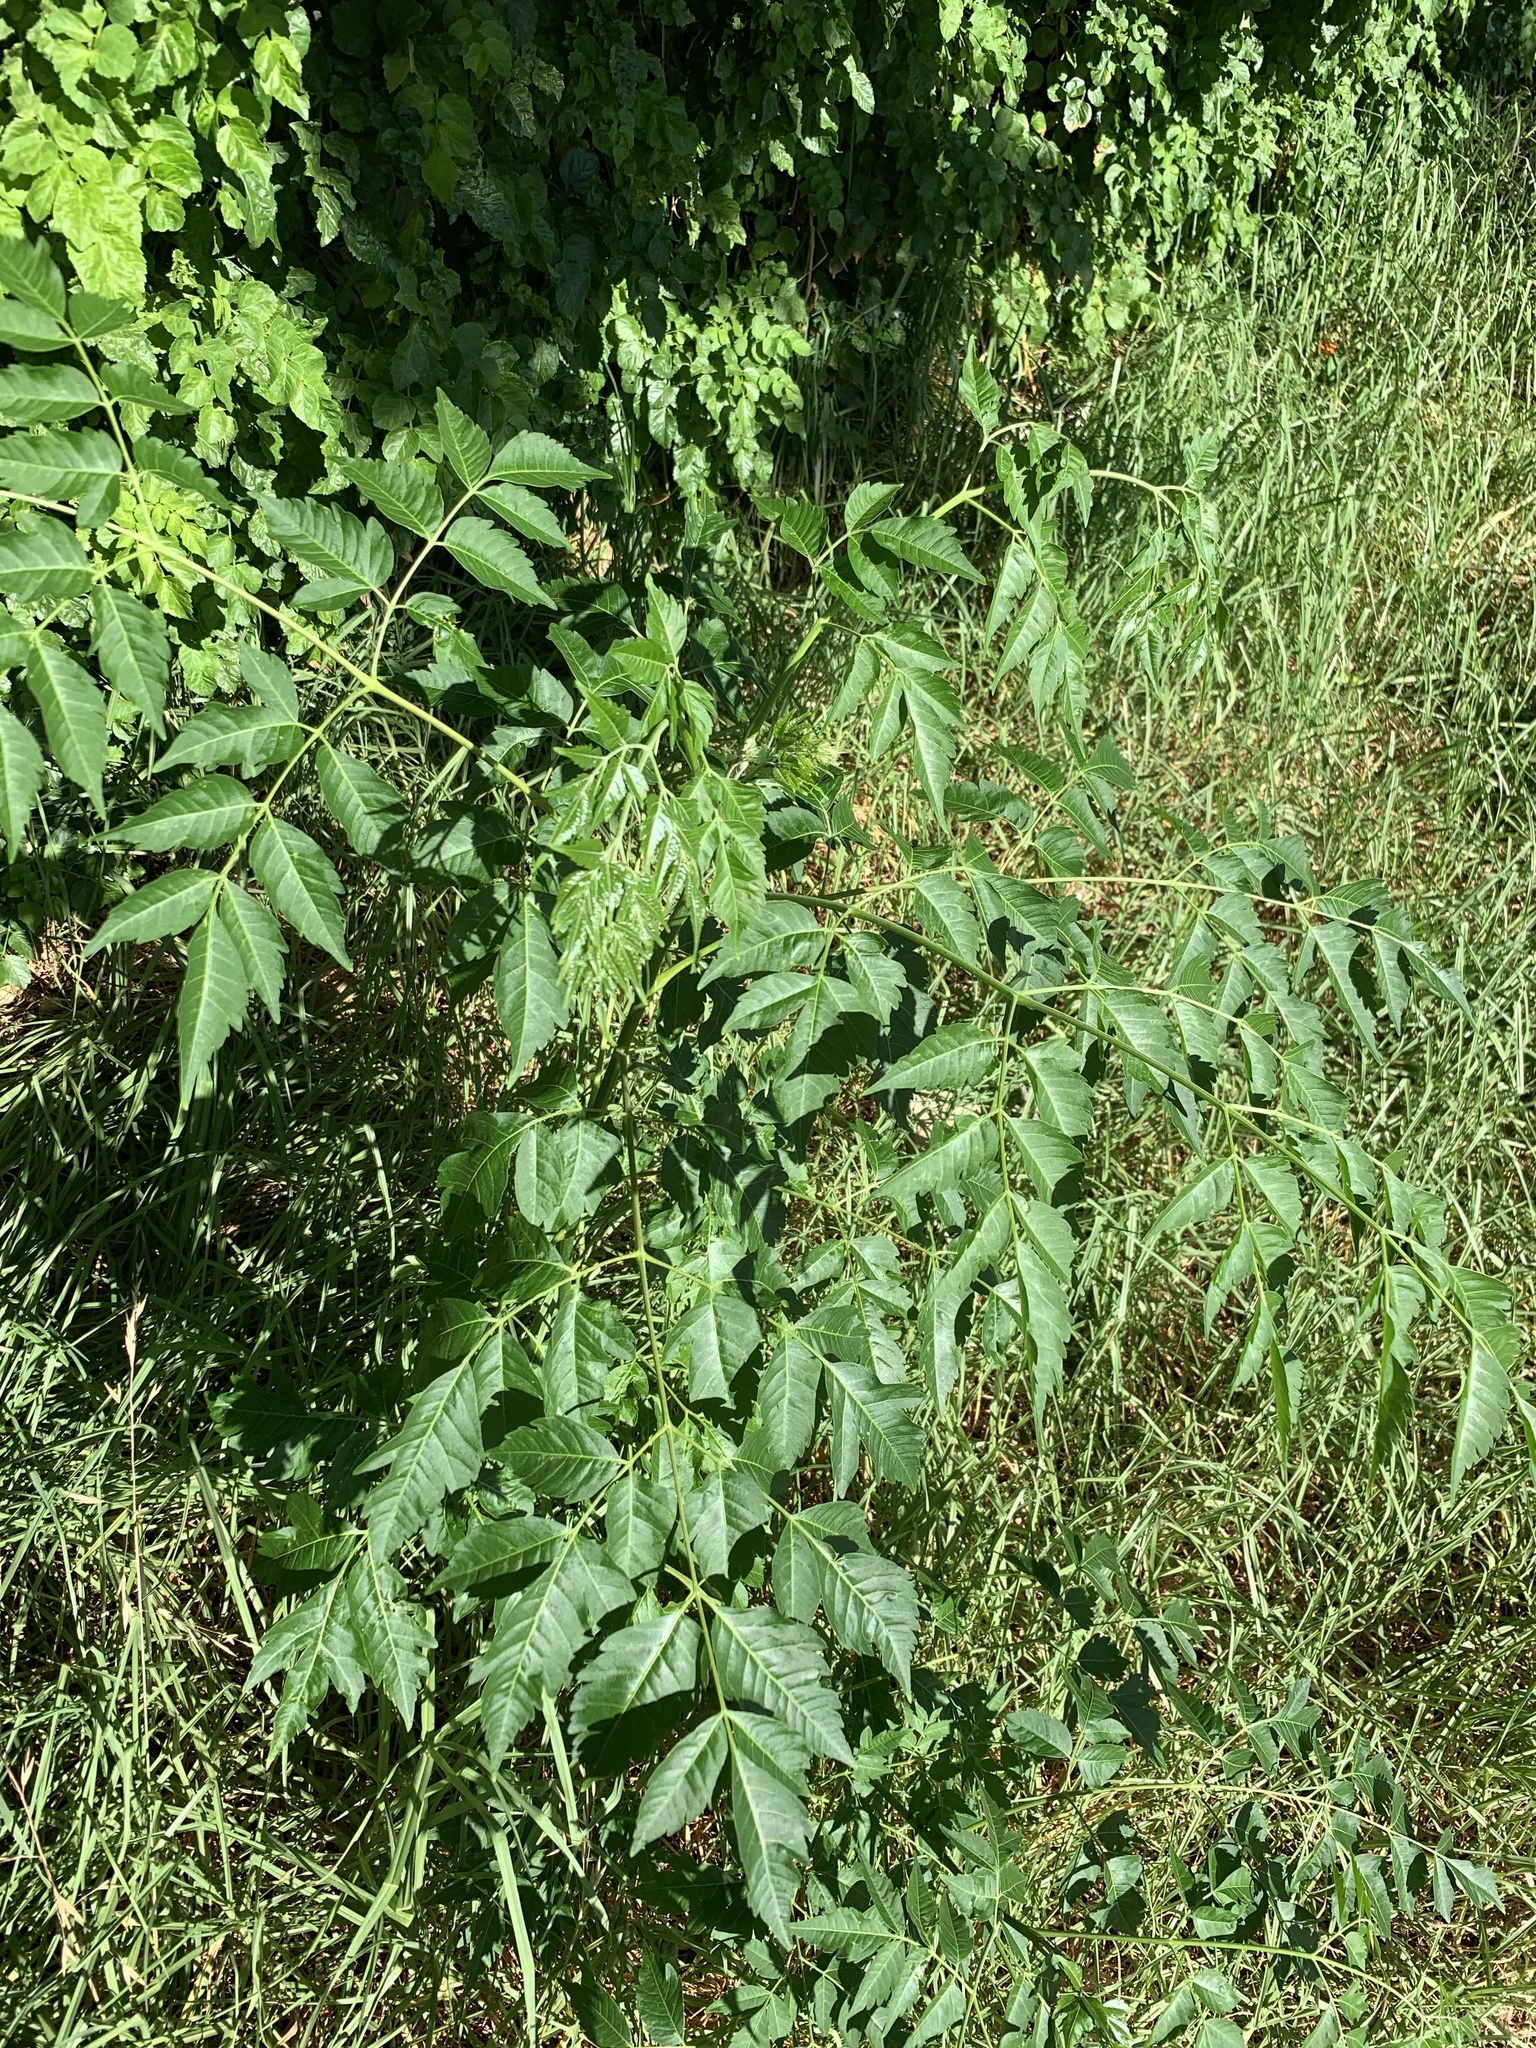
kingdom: Plantae
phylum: Tracheophyta
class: Magnoliopsida
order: Sapindales
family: Meliaceae
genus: Melia
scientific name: Melia azedarach
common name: Chinaberrytree
